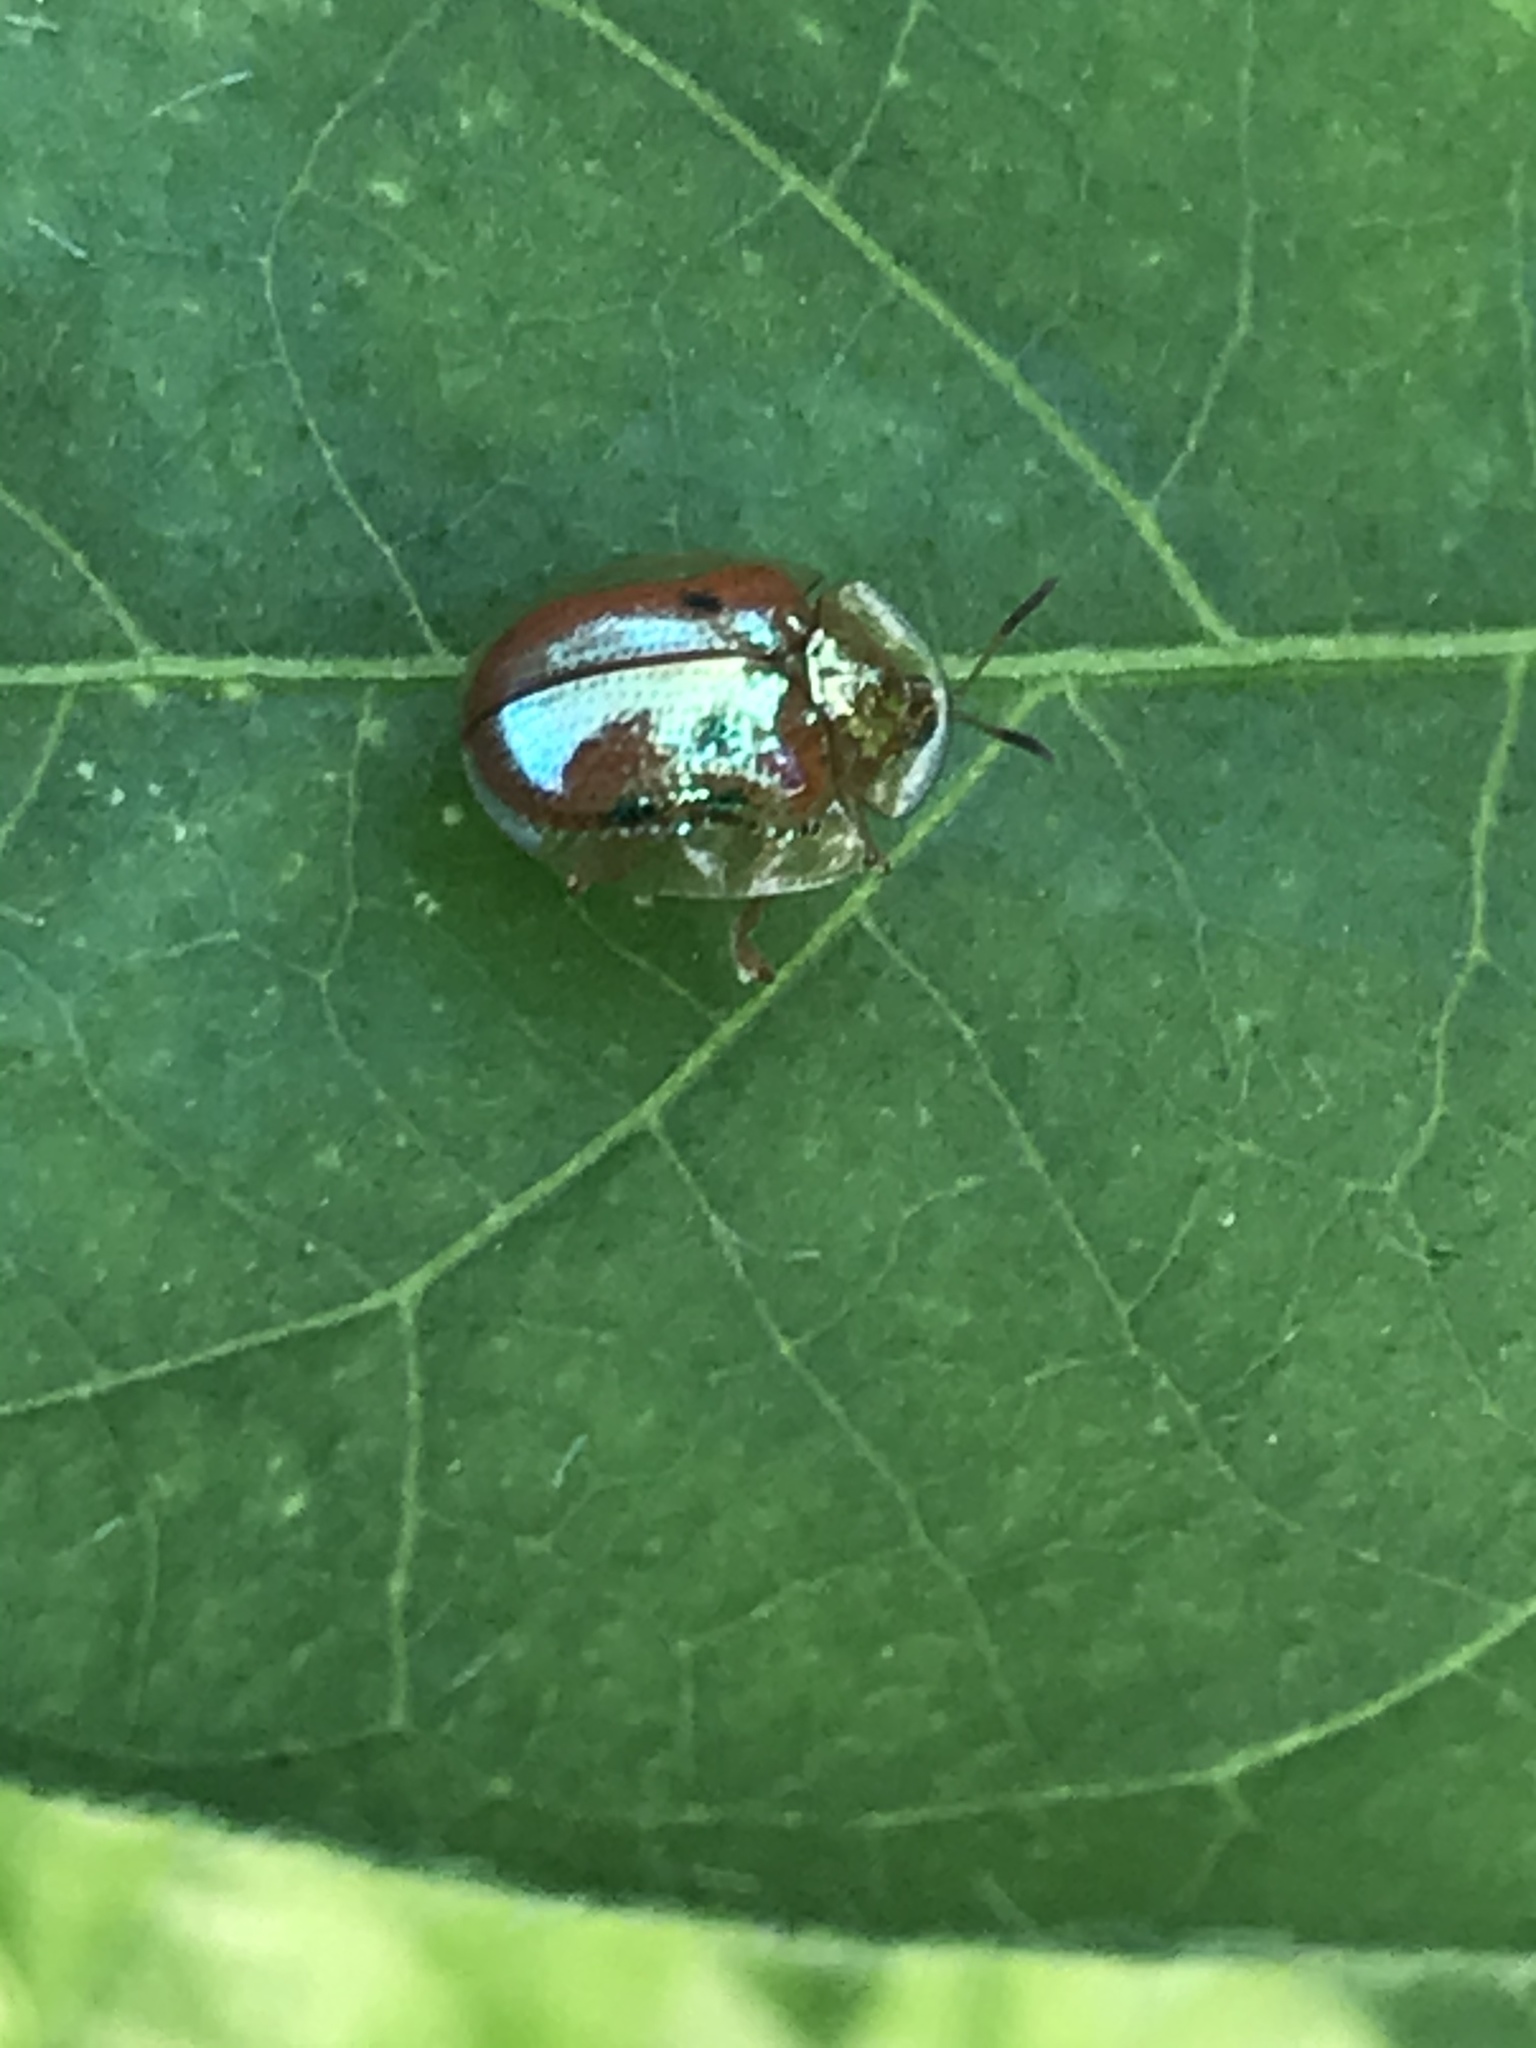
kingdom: Animalia
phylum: Arthropoda
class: Insecta
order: Coleoptera
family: Chrysomelidae
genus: Charidotella
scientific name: Charidotella sexpunctata
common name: Golden tortoise beetle
